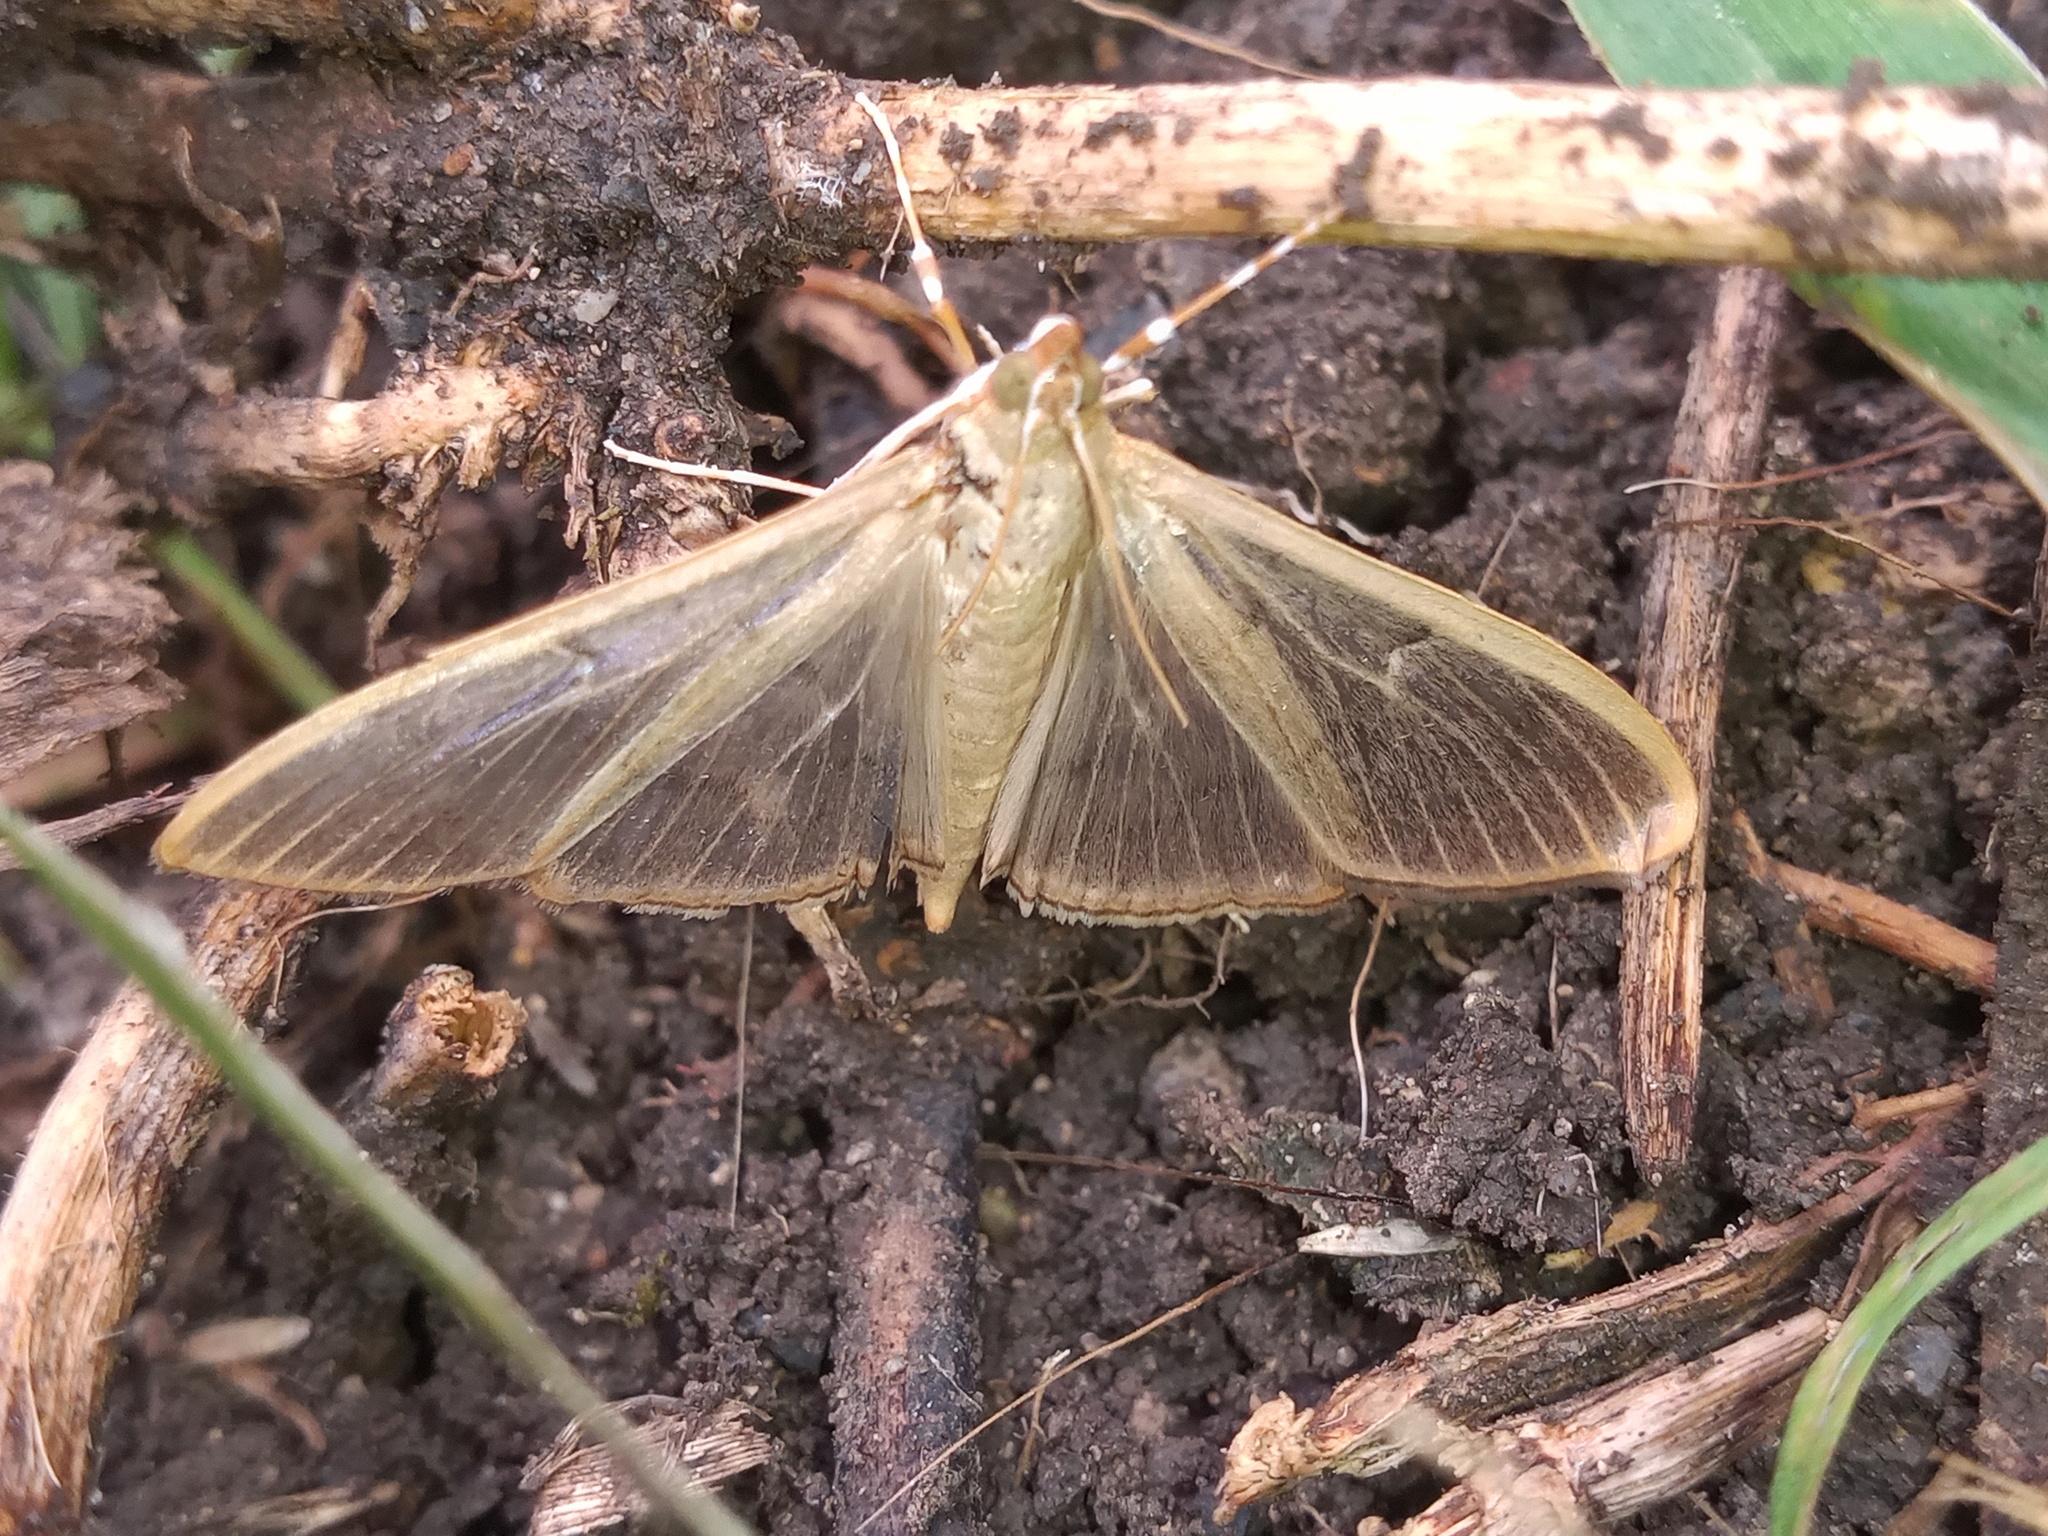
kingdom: Animalia
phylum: Arthropoda
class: Insecta
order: Lepidoptera
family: Crambidae
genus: Condylorrhiza
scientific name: Condylorrhiza vestigialis
